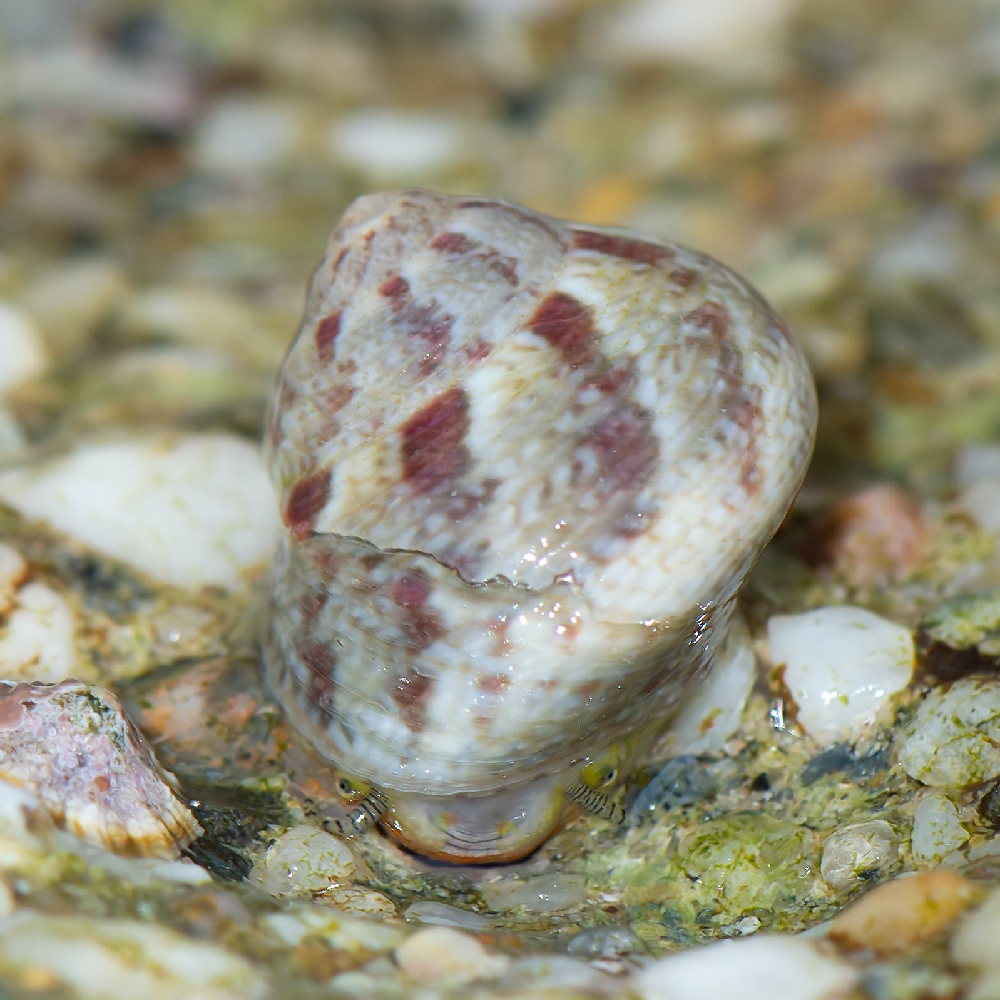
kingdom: Animalia
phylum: Mollusca
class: Gastropoda
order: Trochida
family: Trochidae
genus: Steromphala
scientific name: Steromphala albida
